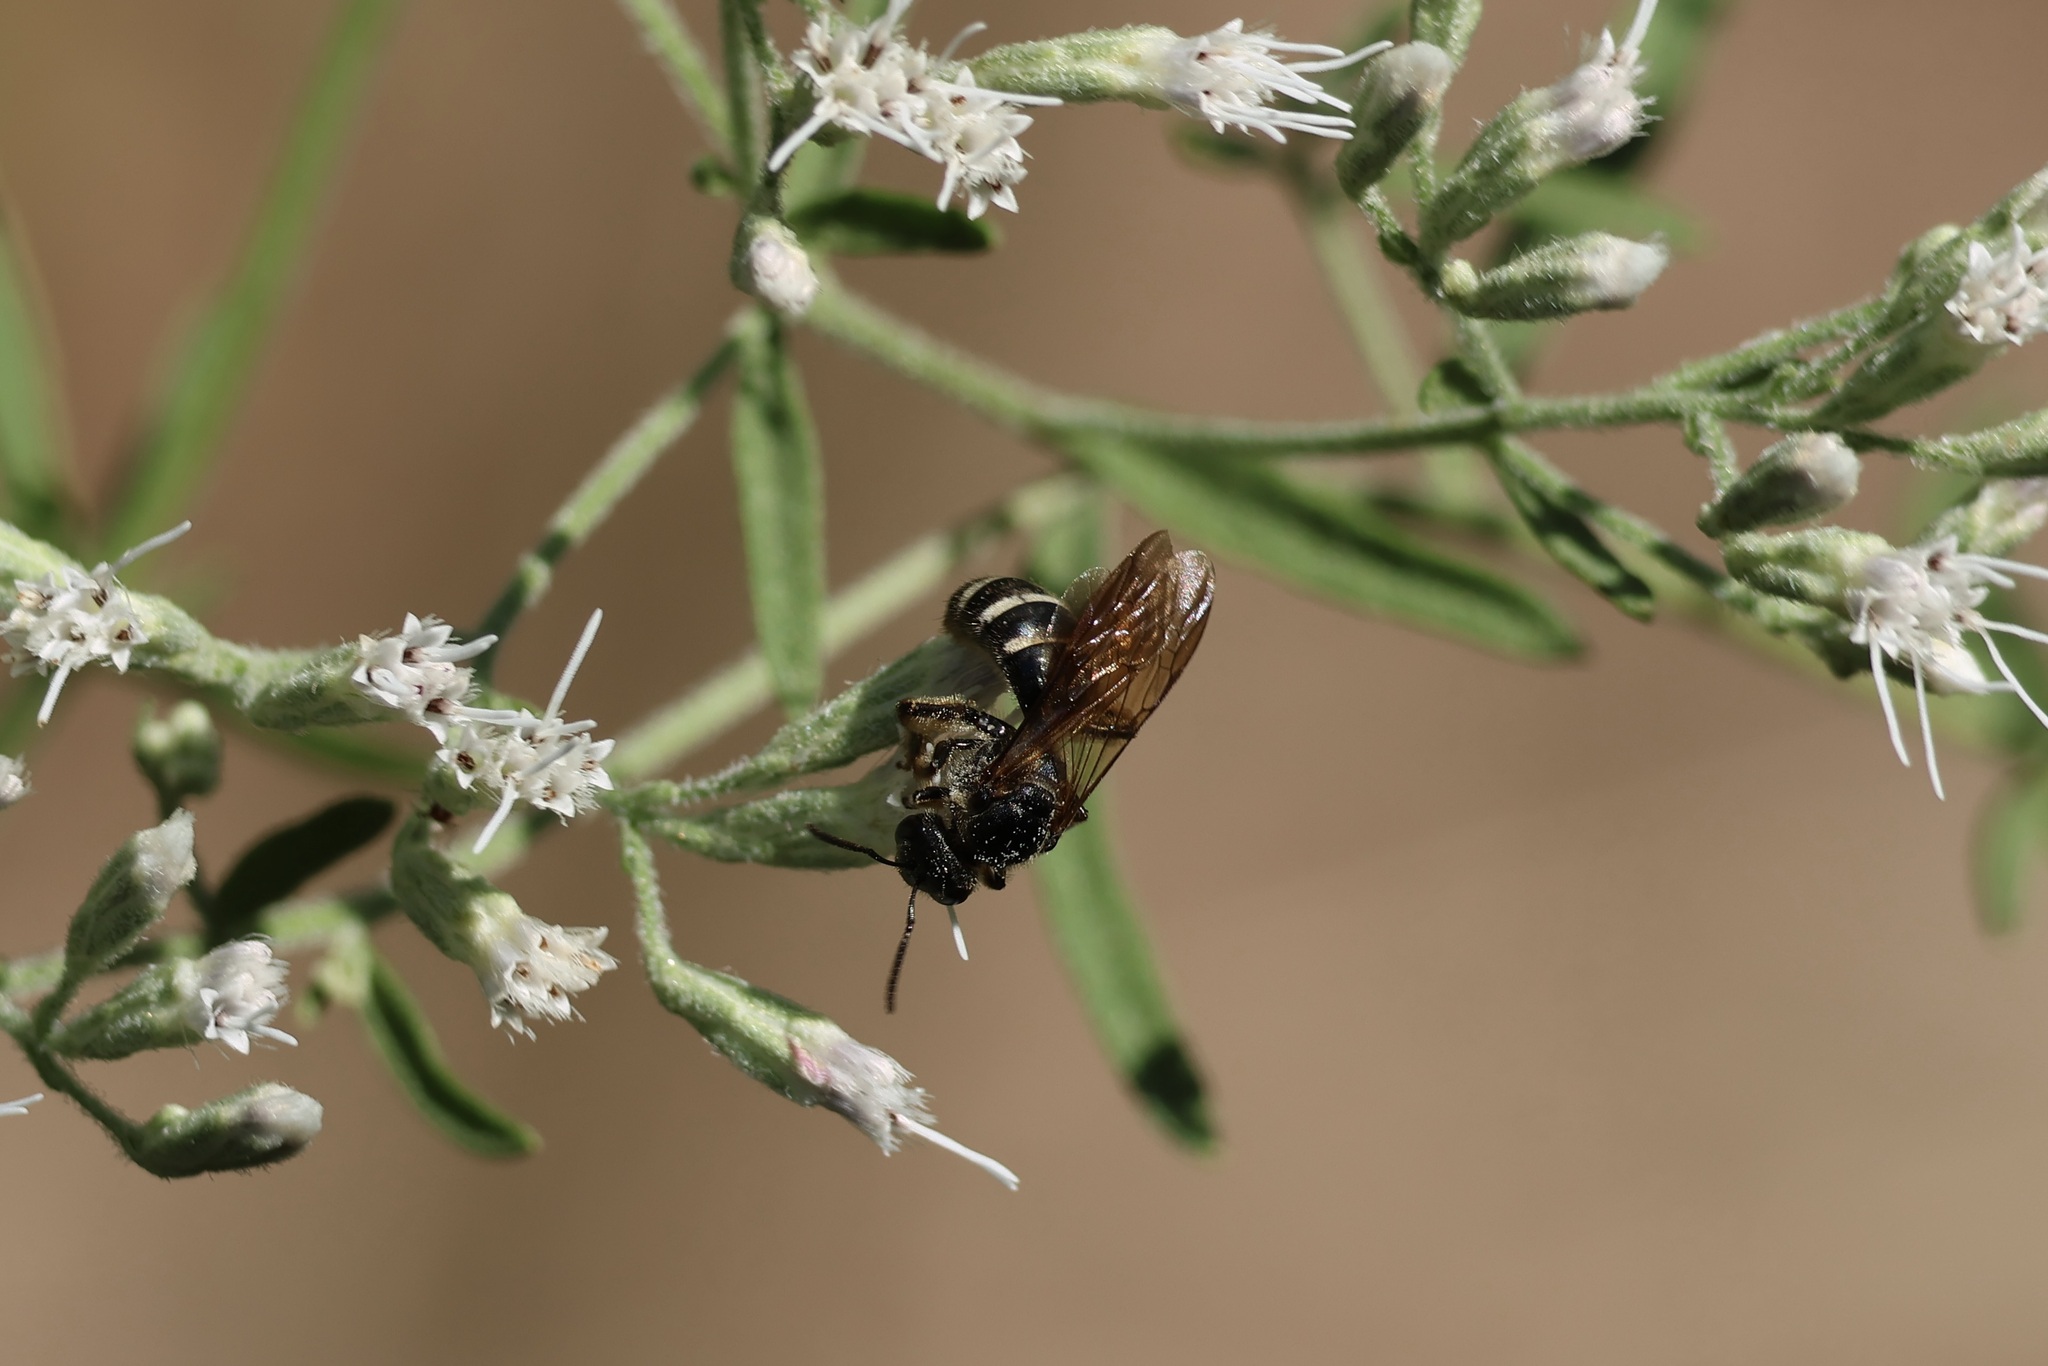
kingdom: Animalia
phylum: Arthropoda
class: Insecta
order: Hymenoptera
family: Halictidae
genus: Lasioglossum
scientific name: Lasioglossum fuscipenne
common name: Brown-winged sweat bee
